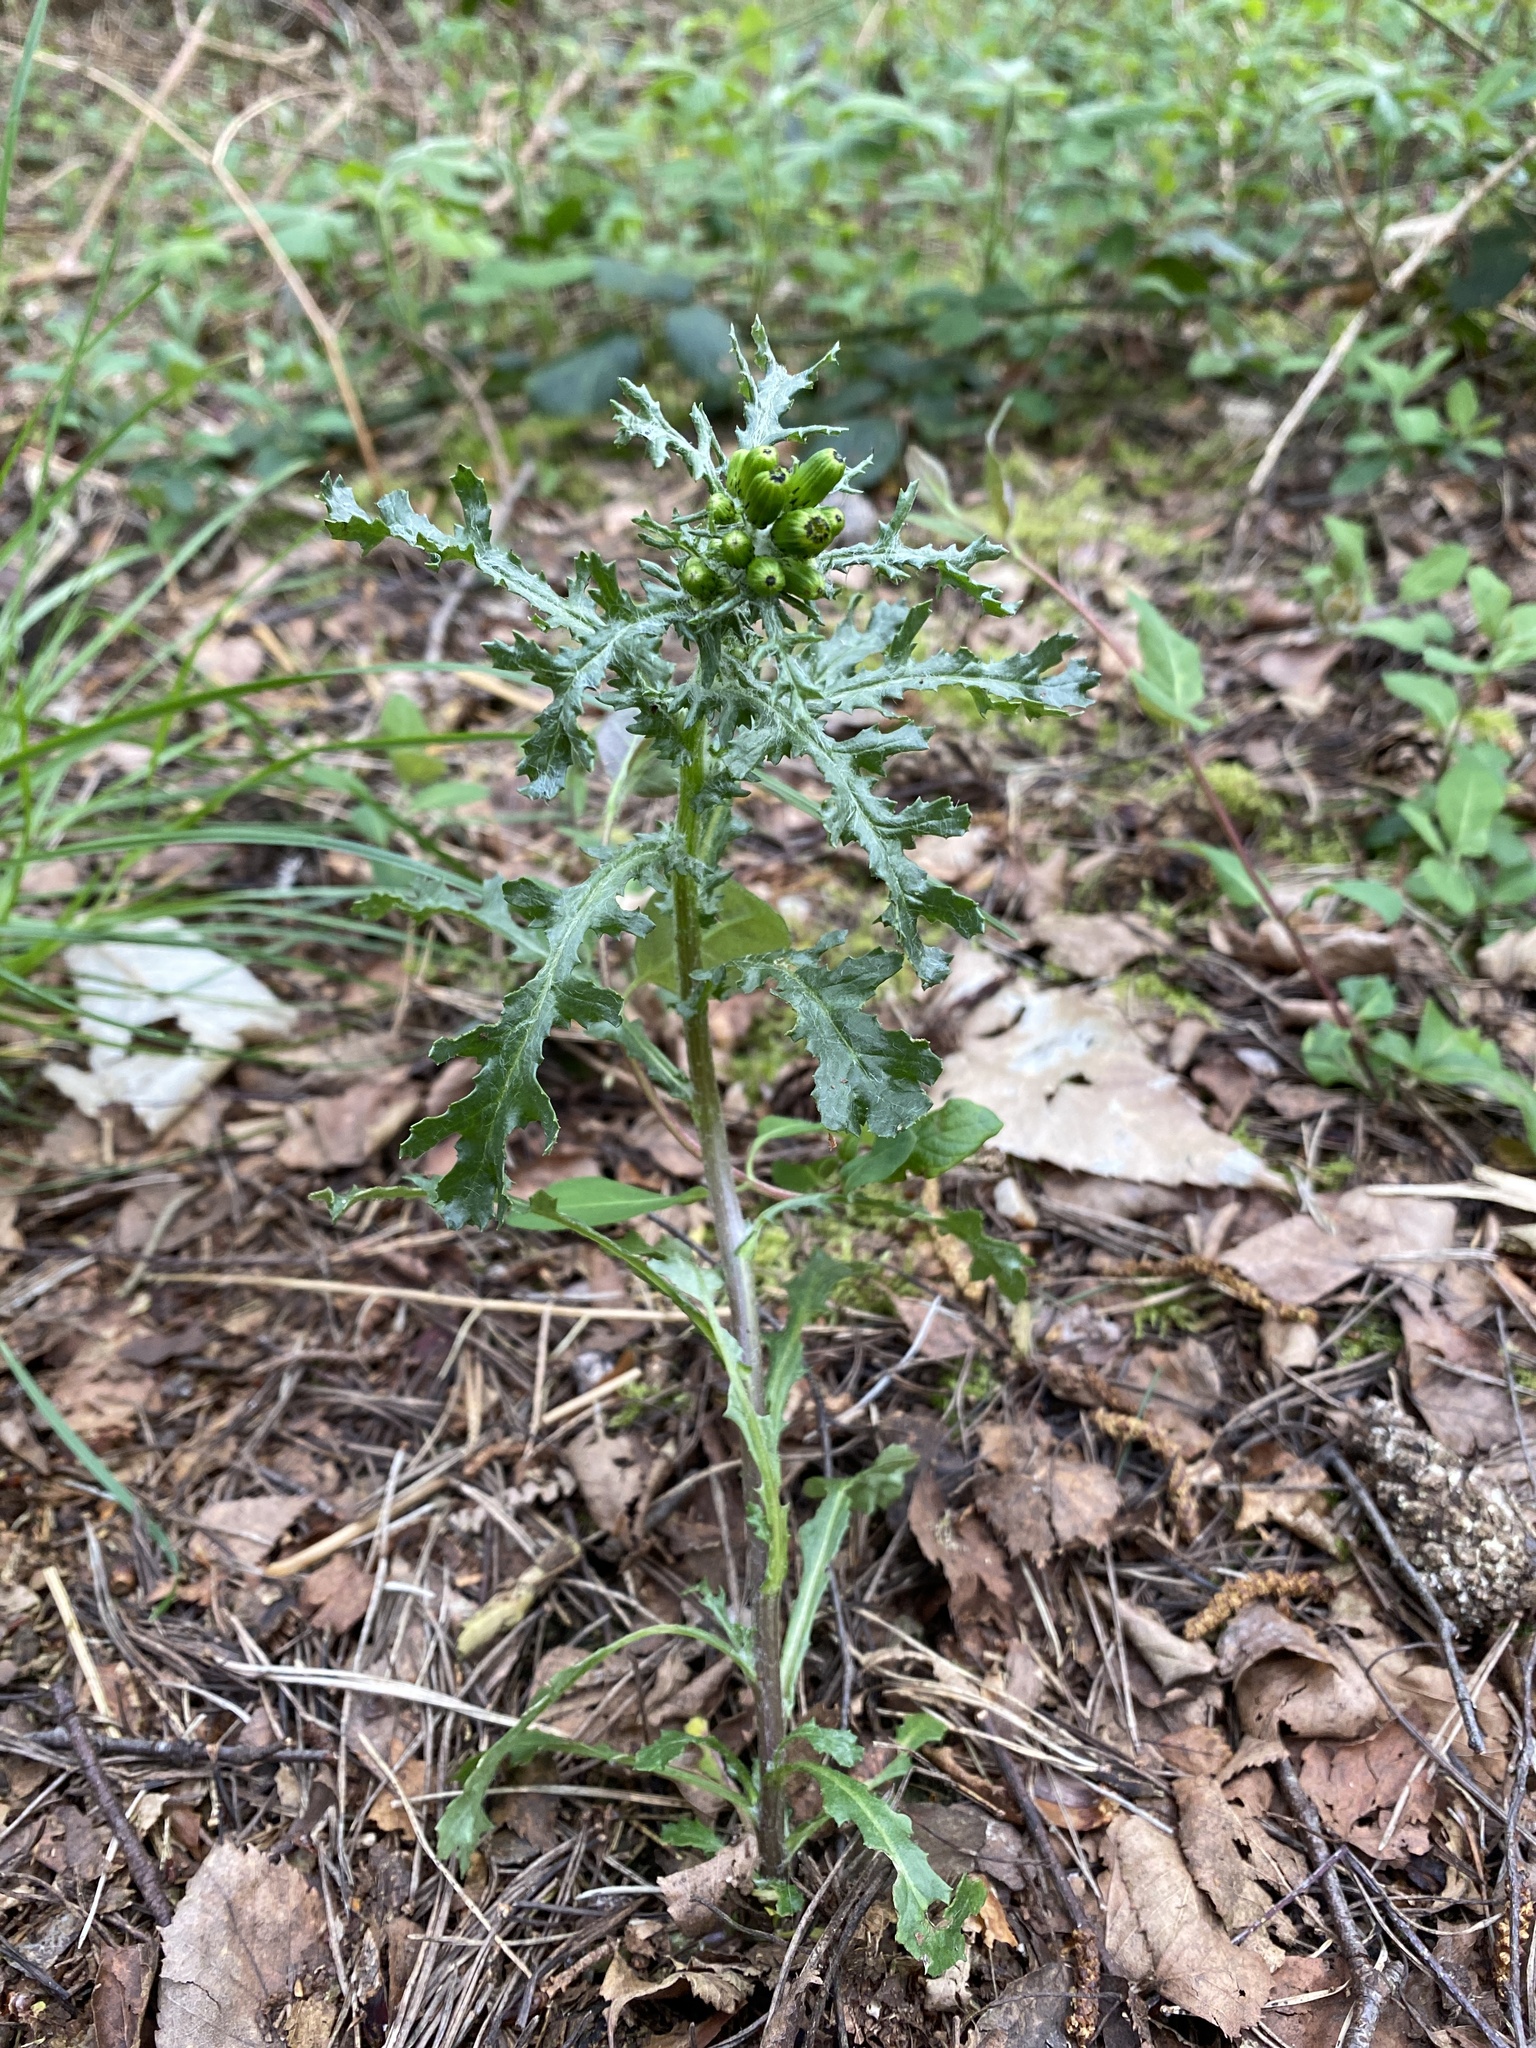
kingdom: Plantae
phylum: Tracheophyta
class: Magnoliopsida
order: Asterales
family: Asteraceae
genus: Senecio
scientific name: Senecio vulgaris
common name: Old-man-in-the-spring
